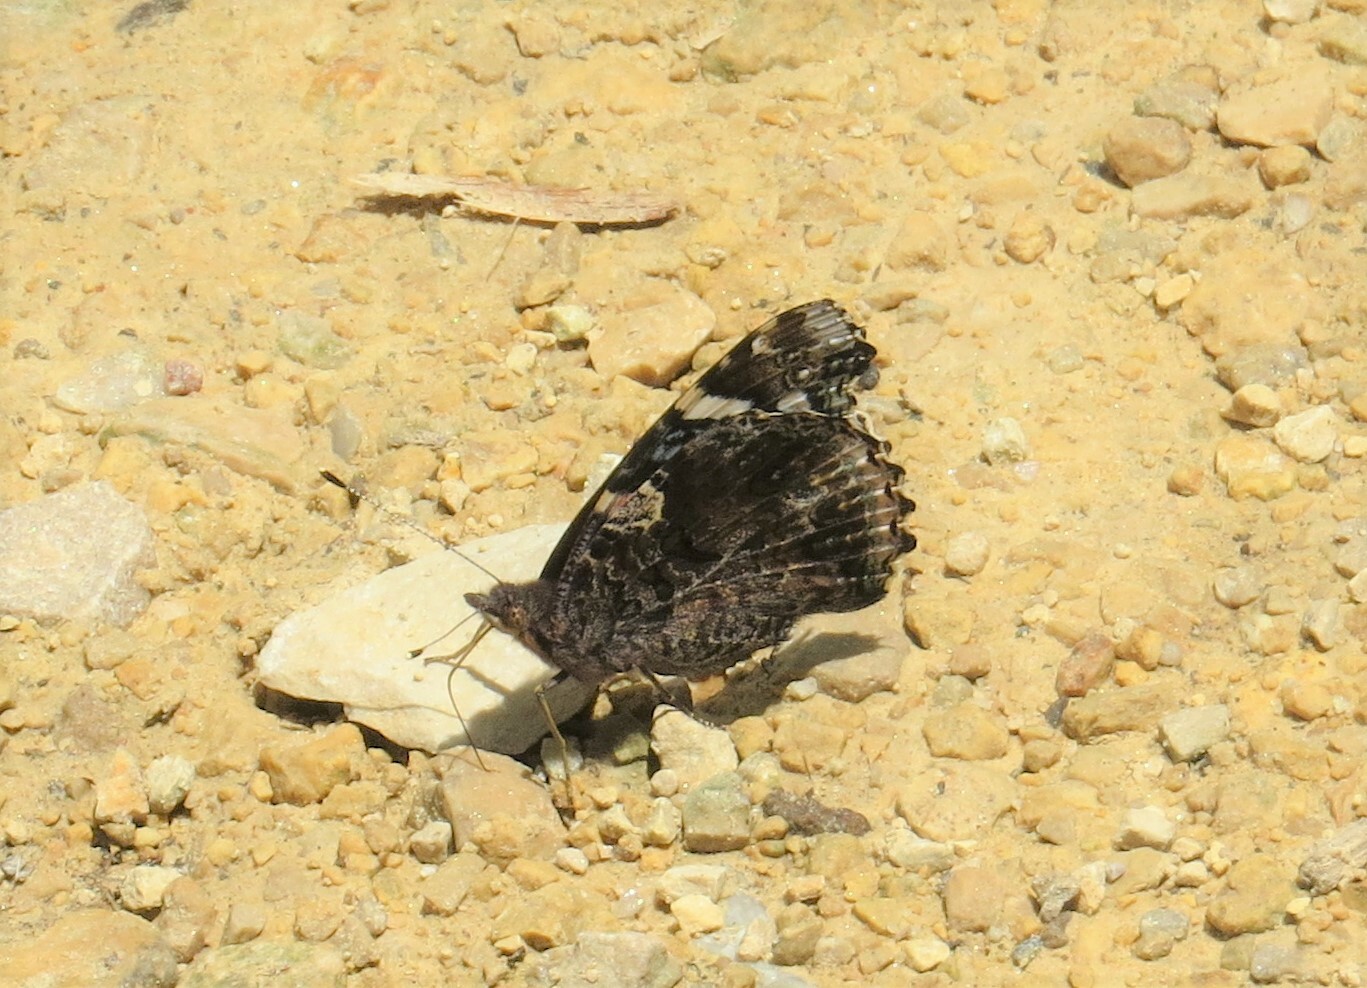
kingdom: Animalia
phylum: Arthropoda
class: Insecta
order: Lepidoptera
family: Nymphalidae
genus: Vanessa
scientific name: Vanessa atalanta
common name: Red admiral
